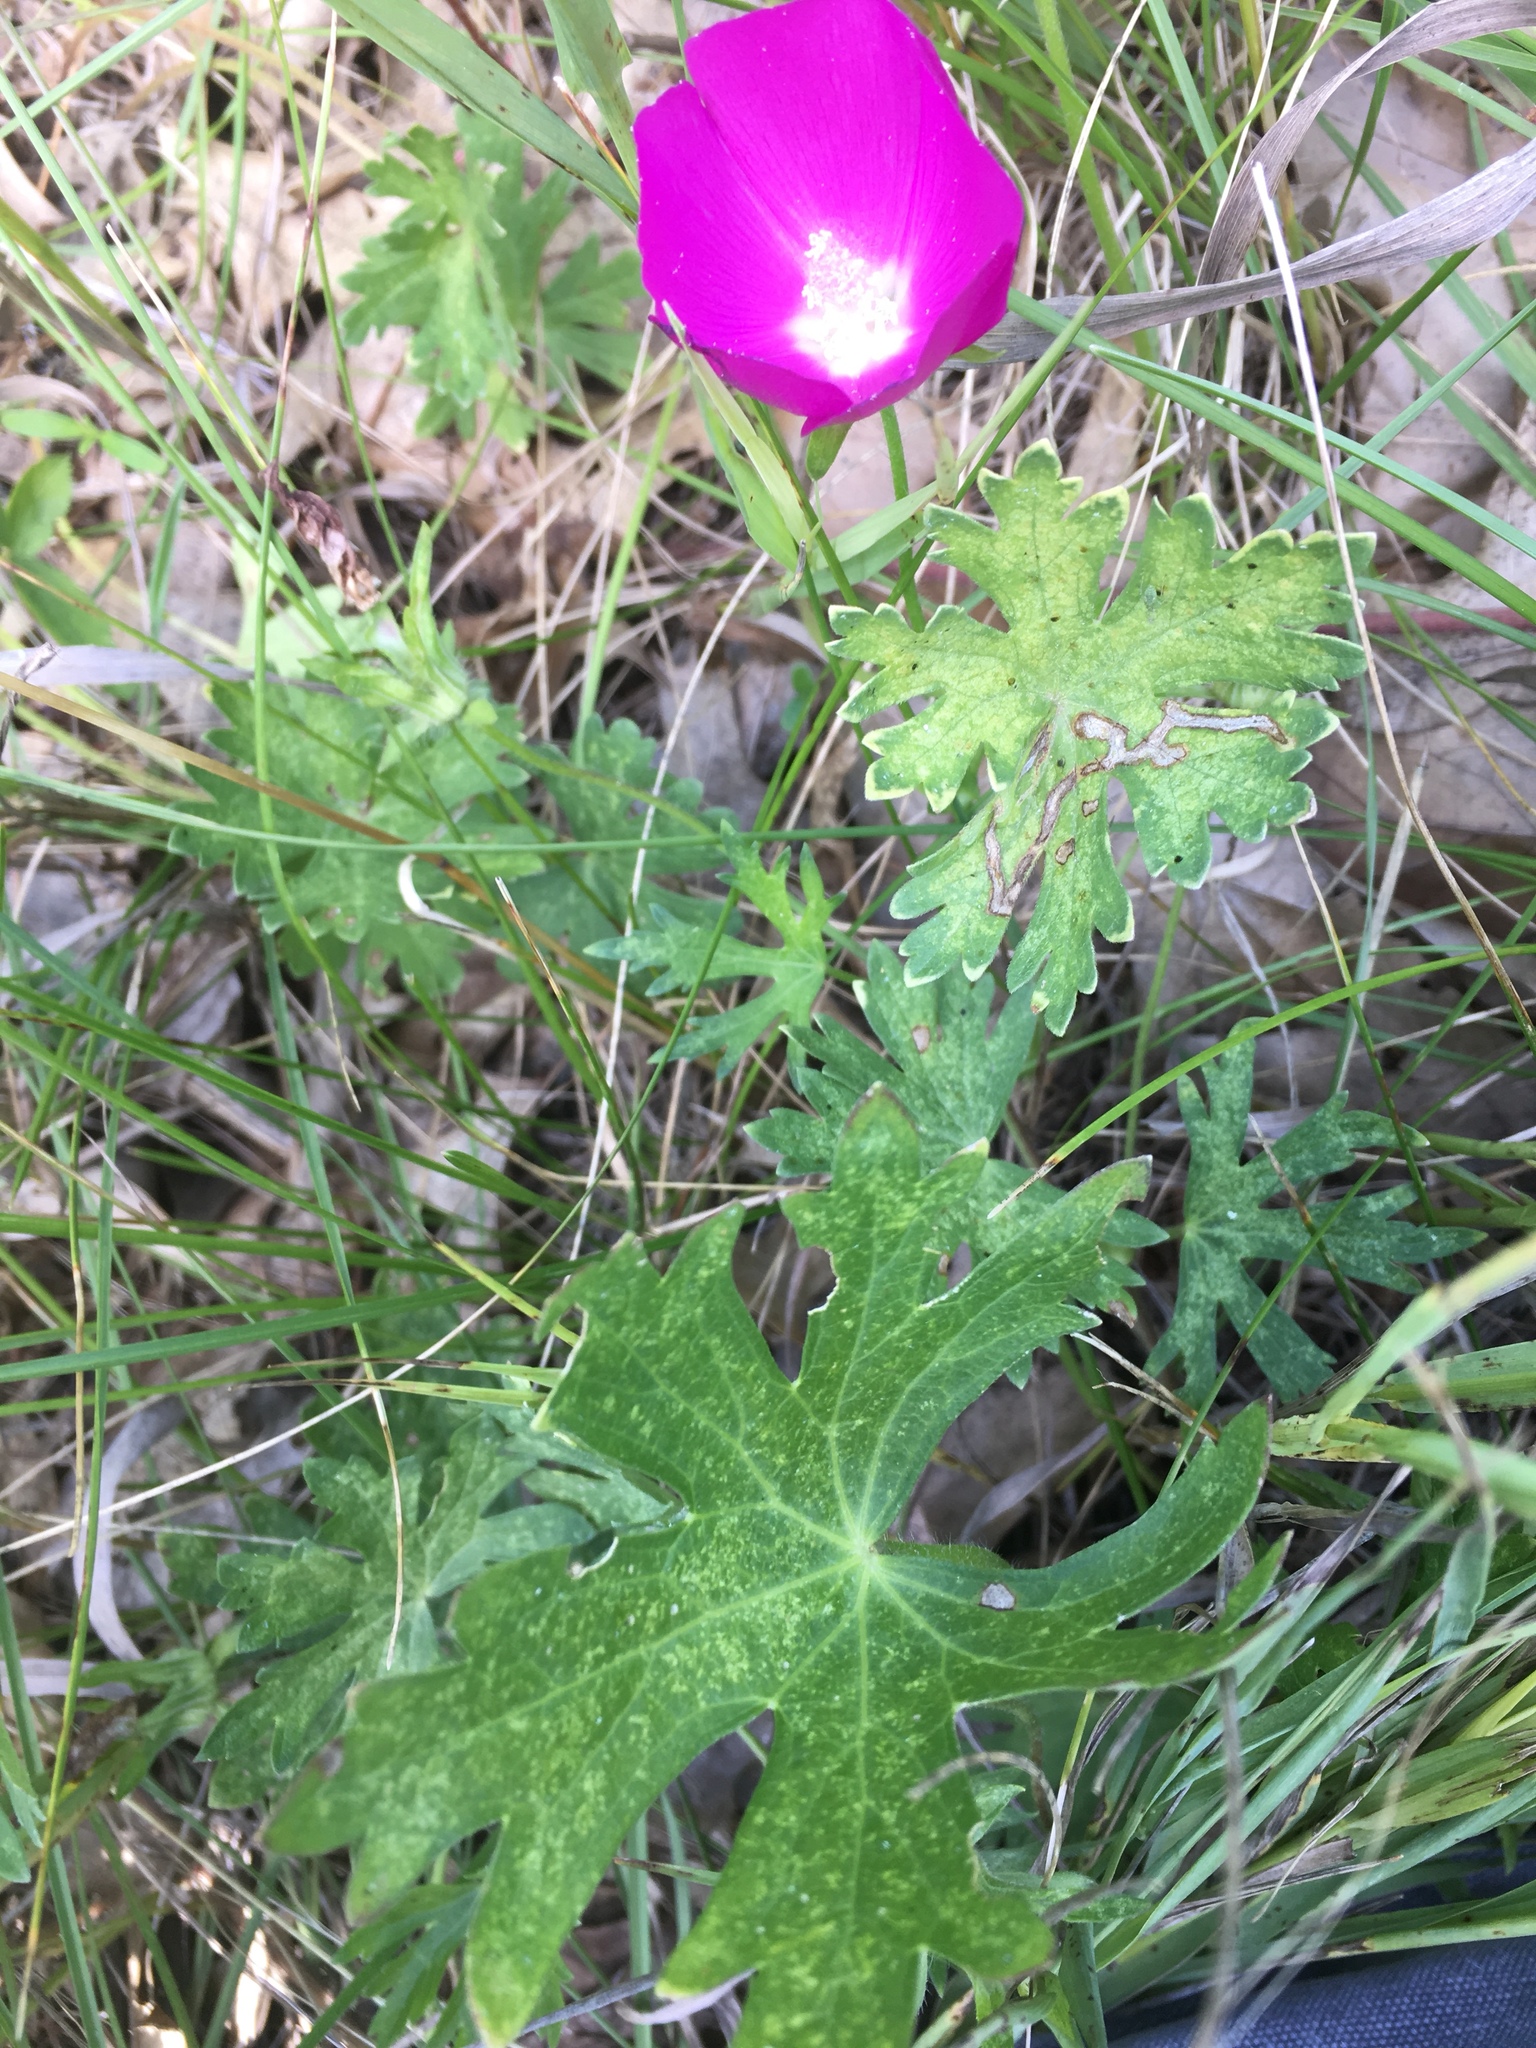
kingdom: Plantae
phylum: Tracheophyta
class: Magnoliopsida
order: Malvales
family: Malvaceae
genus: Callirhoe
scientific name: Callirhoe involucrata
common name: Purple poppy-mallow
